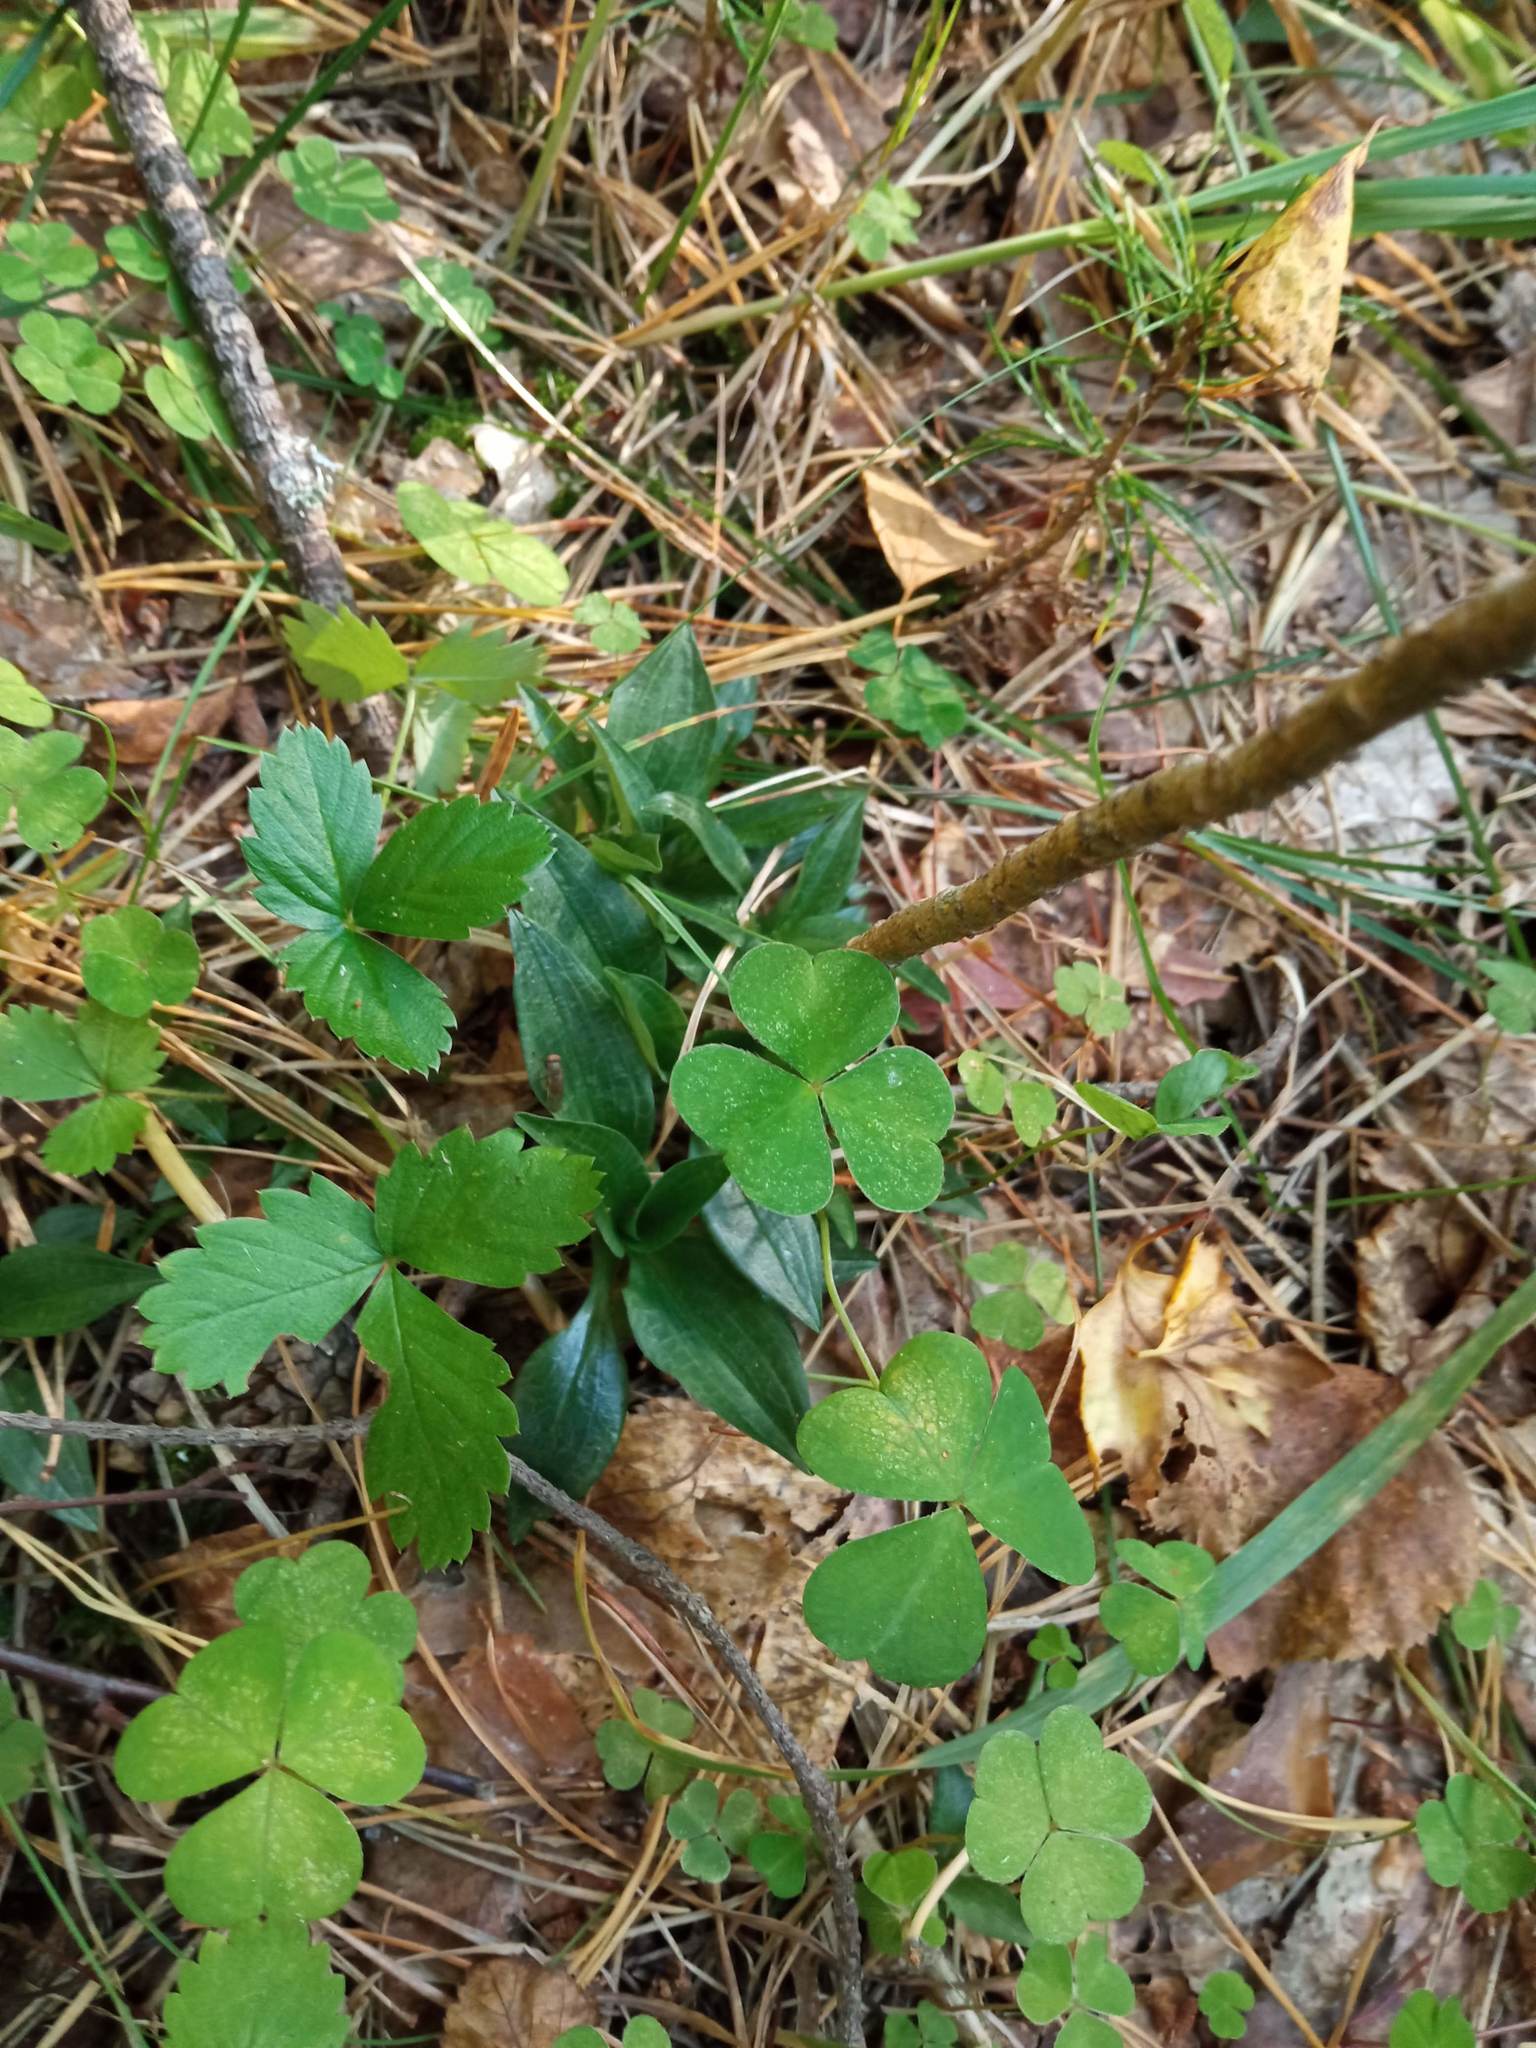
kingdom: Plantae
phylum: Tracheophyta
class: Liliopsida
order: Asparagales
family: Orchidaceae
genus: Goodyera
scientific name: Goodyera repens
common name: Creeping lady's-tresses
